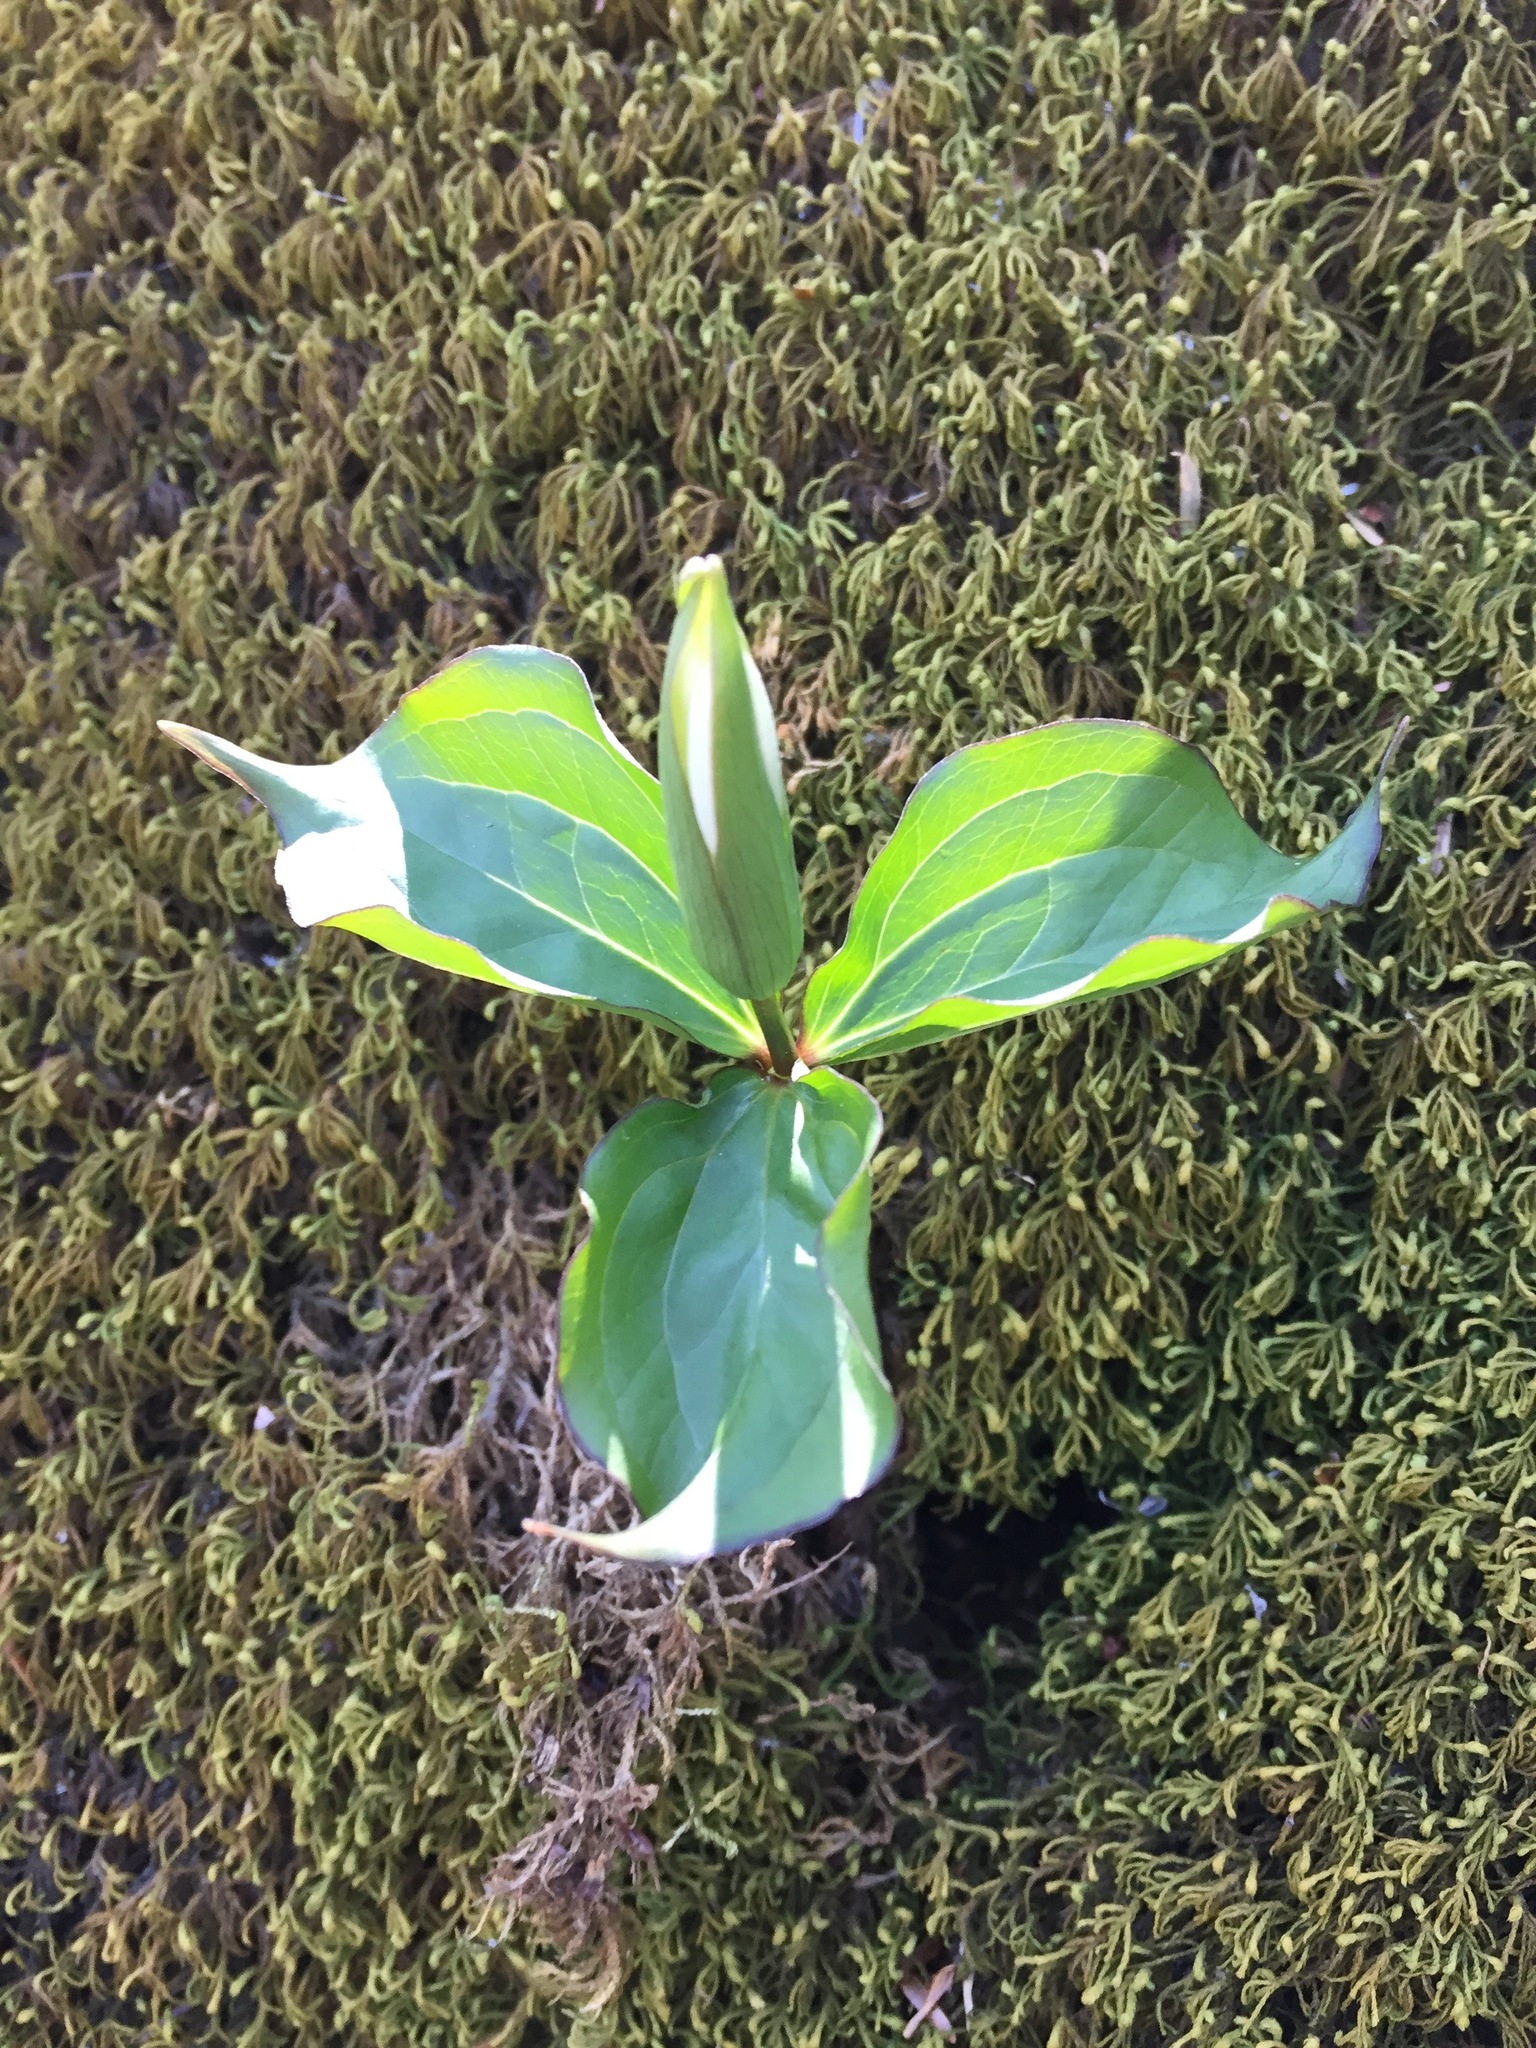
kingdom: Plantae
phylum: Tracheophyta
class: Liliopsida
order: Liliales
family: Melanthiaceae
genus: Trillium
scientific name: Trillium grandiflorum
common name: Great white trillium
